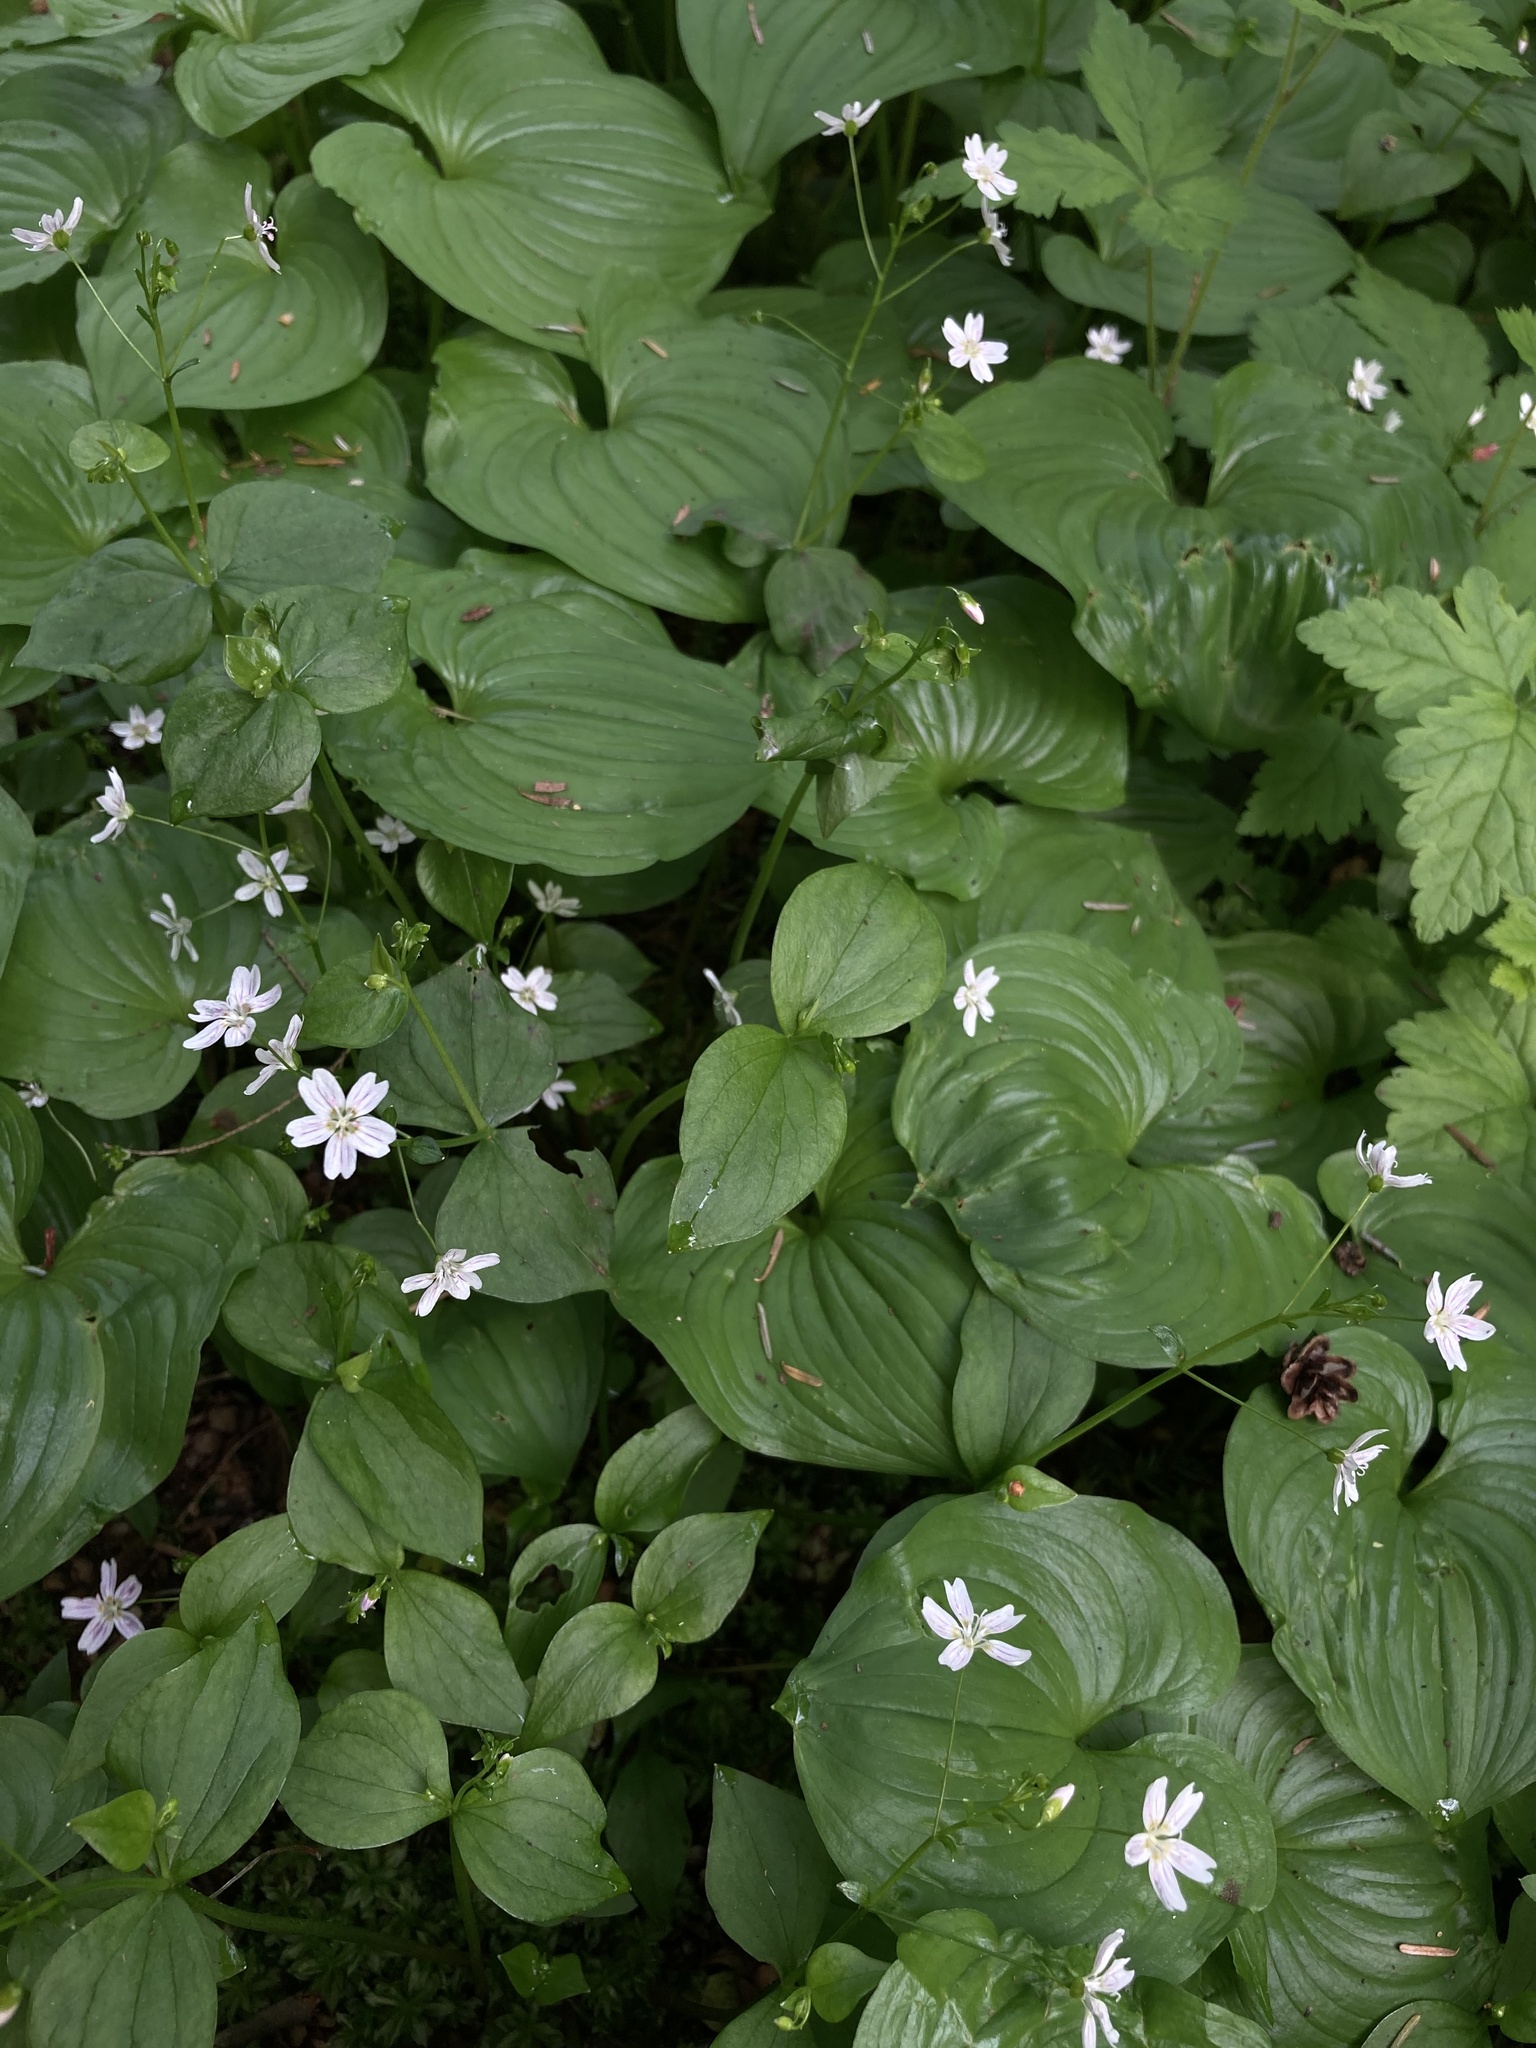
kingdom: Plantae
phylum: Tracheophyta
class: Magnoliopsida
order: Caryophyllales
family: Montiaceae
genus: Claytonia
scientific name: Claytonia sibirica
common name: Pink purslane
